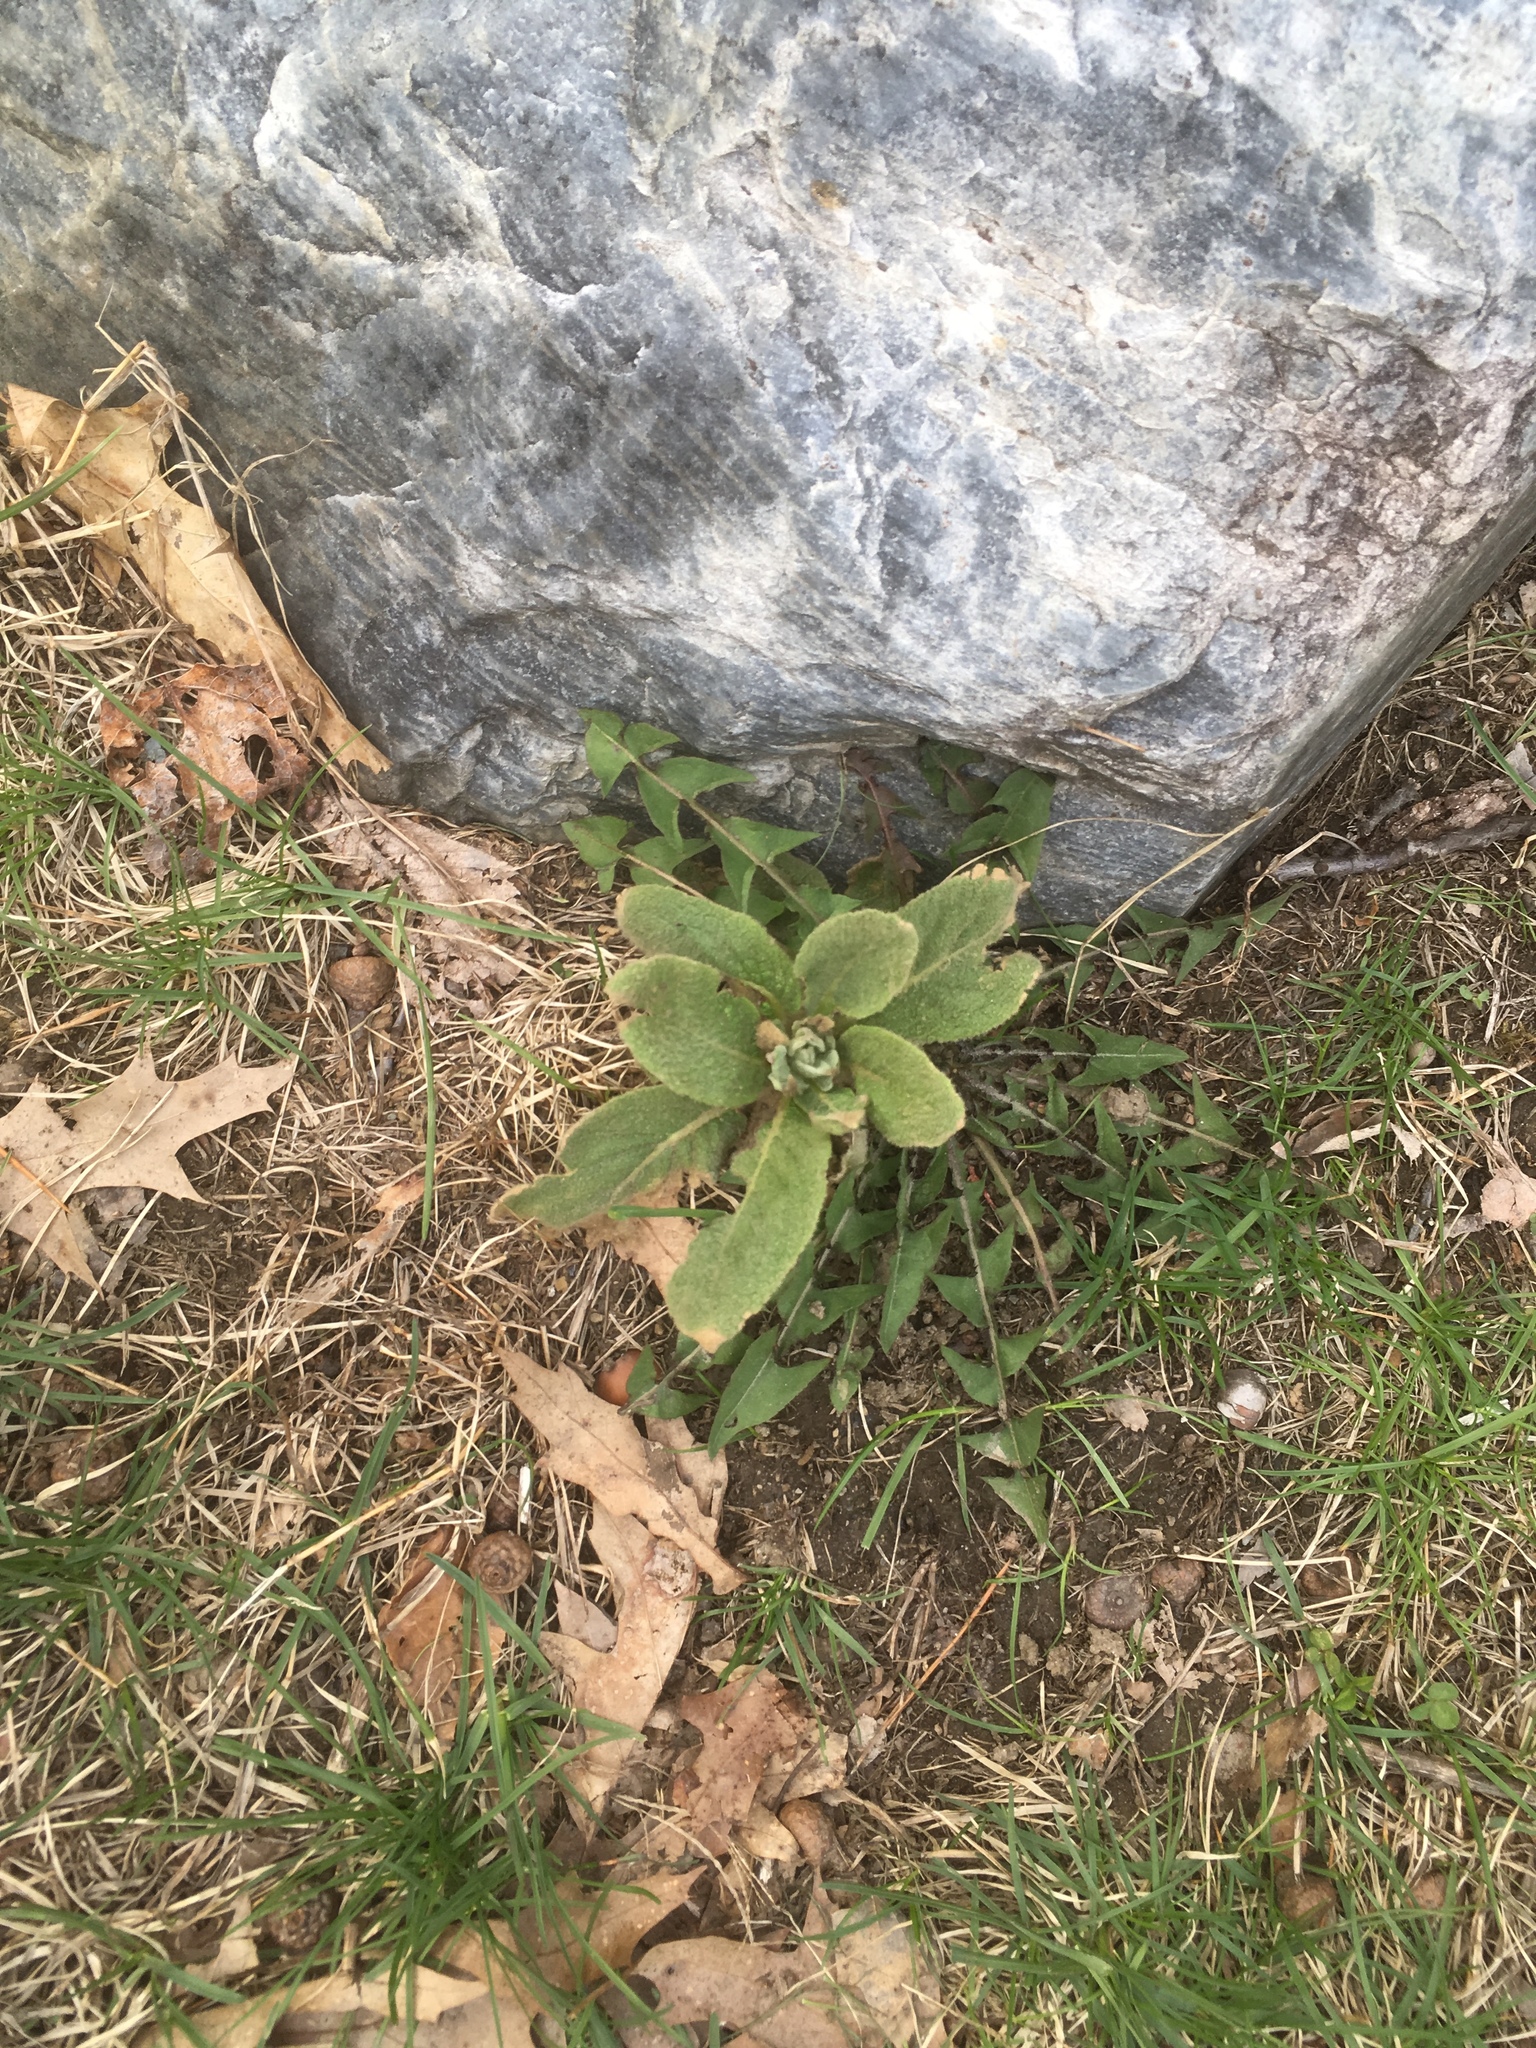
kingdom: Plantae
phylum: Tracheophyta
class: Magnoliopsida
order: Lamiales
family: Scrophulariaceae
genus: Verbascum
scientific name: Verbascum thapsus
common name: Common mullein
